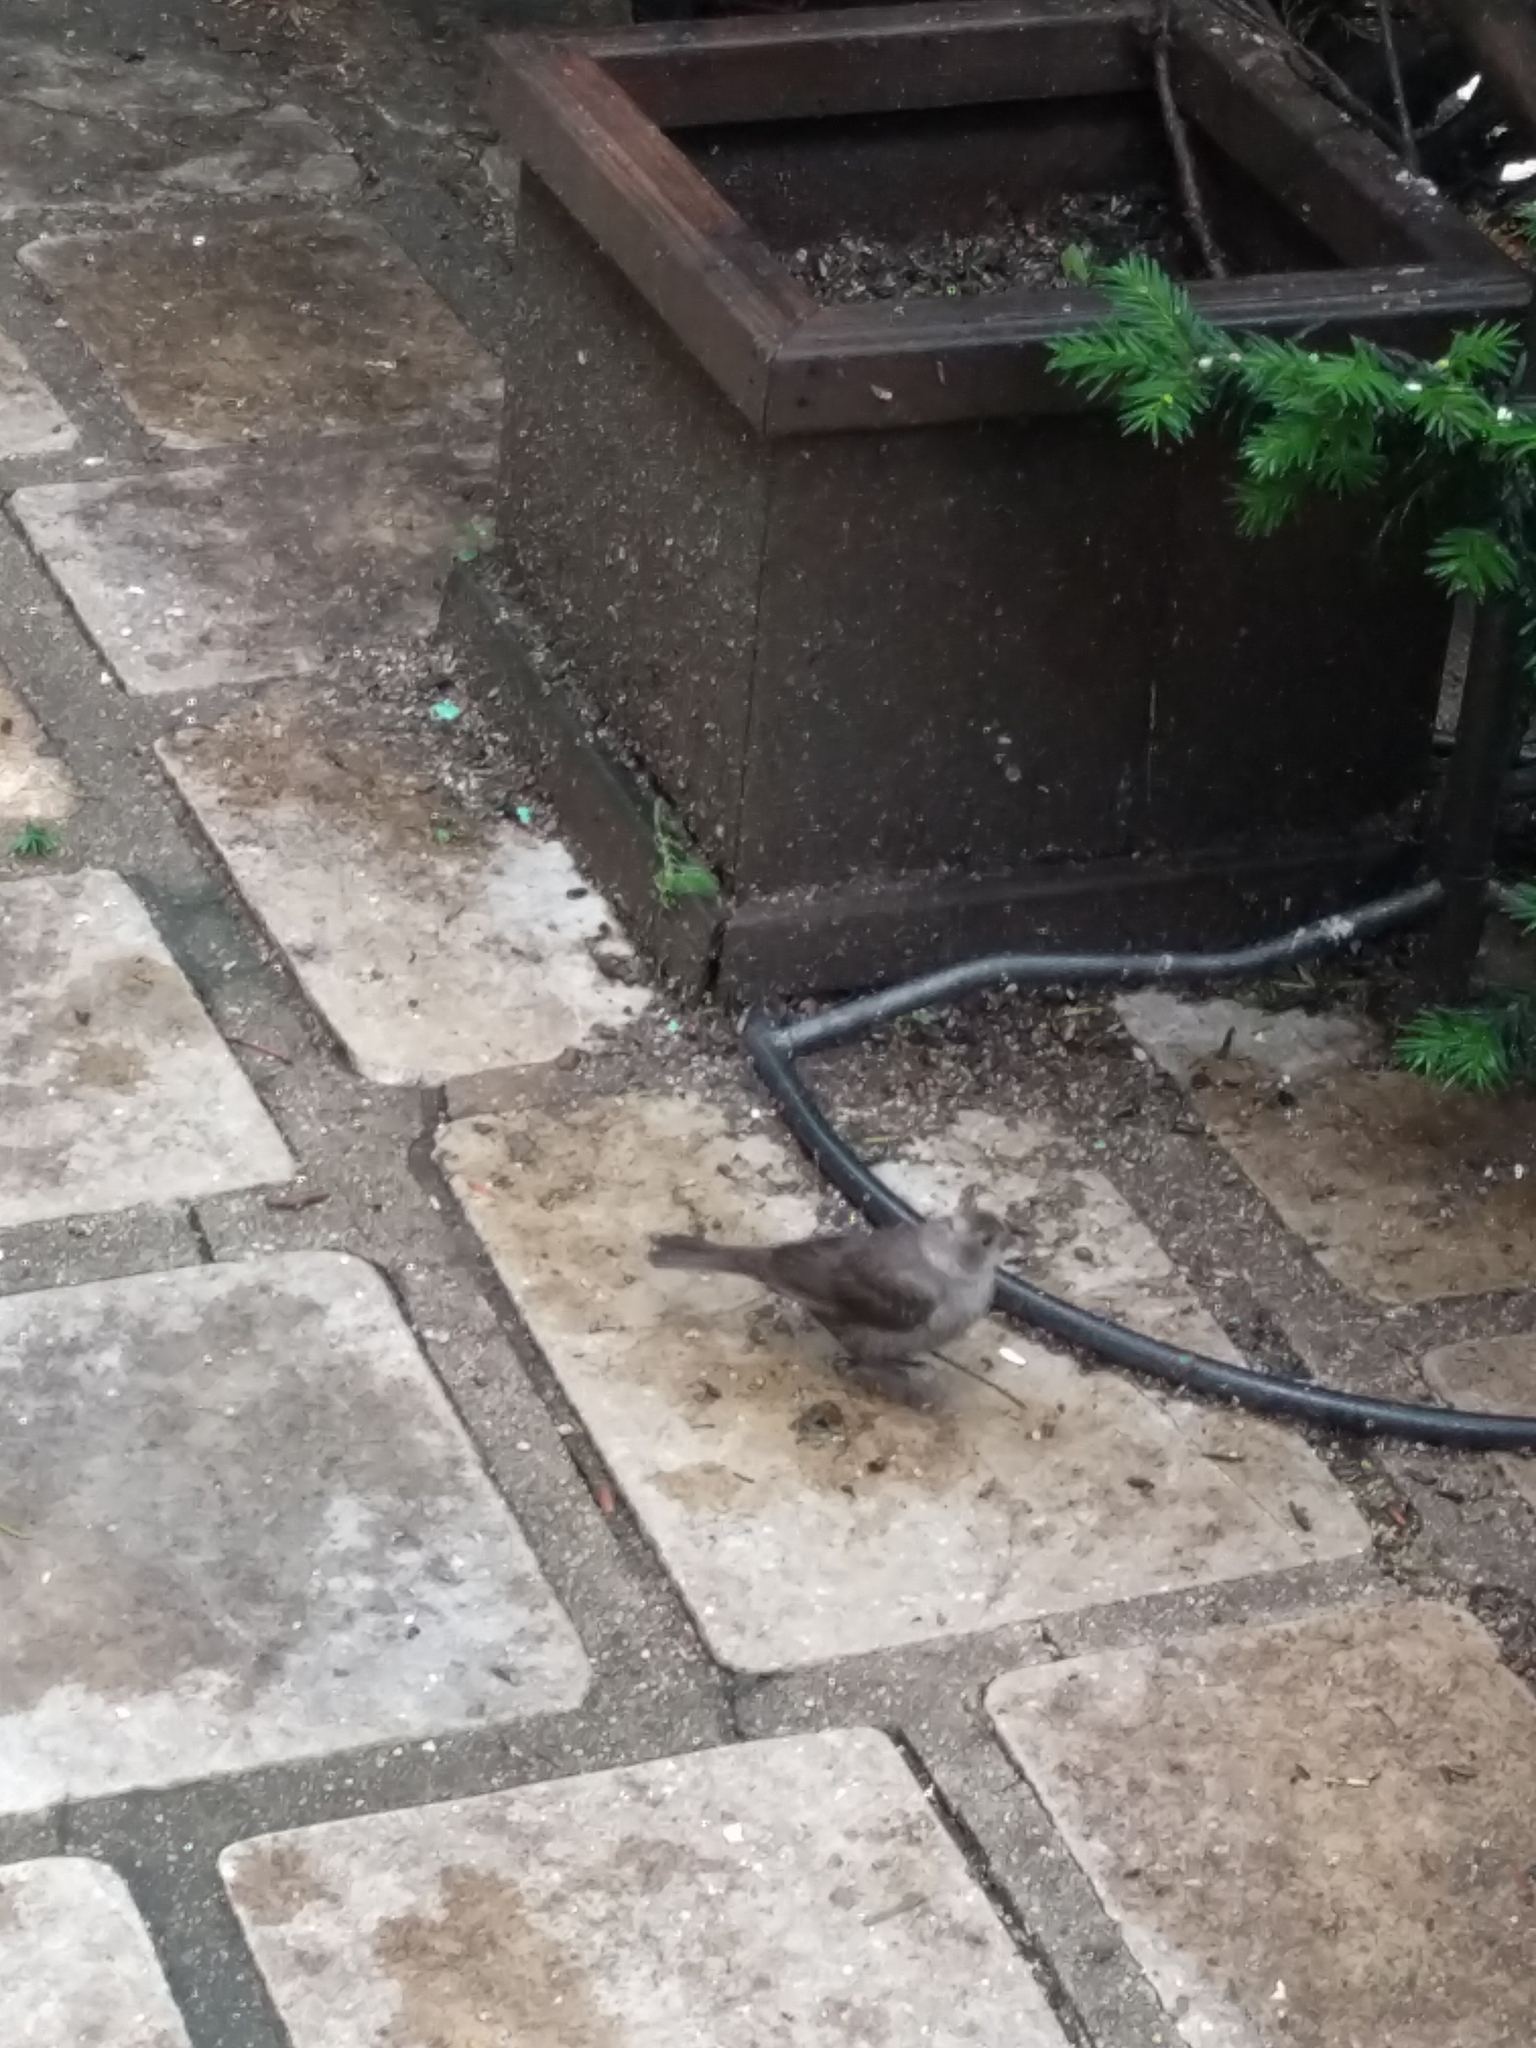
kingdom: Animalia
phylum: Chordata
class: Aves
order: Passeriformes
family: Icteridae
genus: Molothrus
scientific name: Molothrus ater
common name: Brown-headed cowbird
